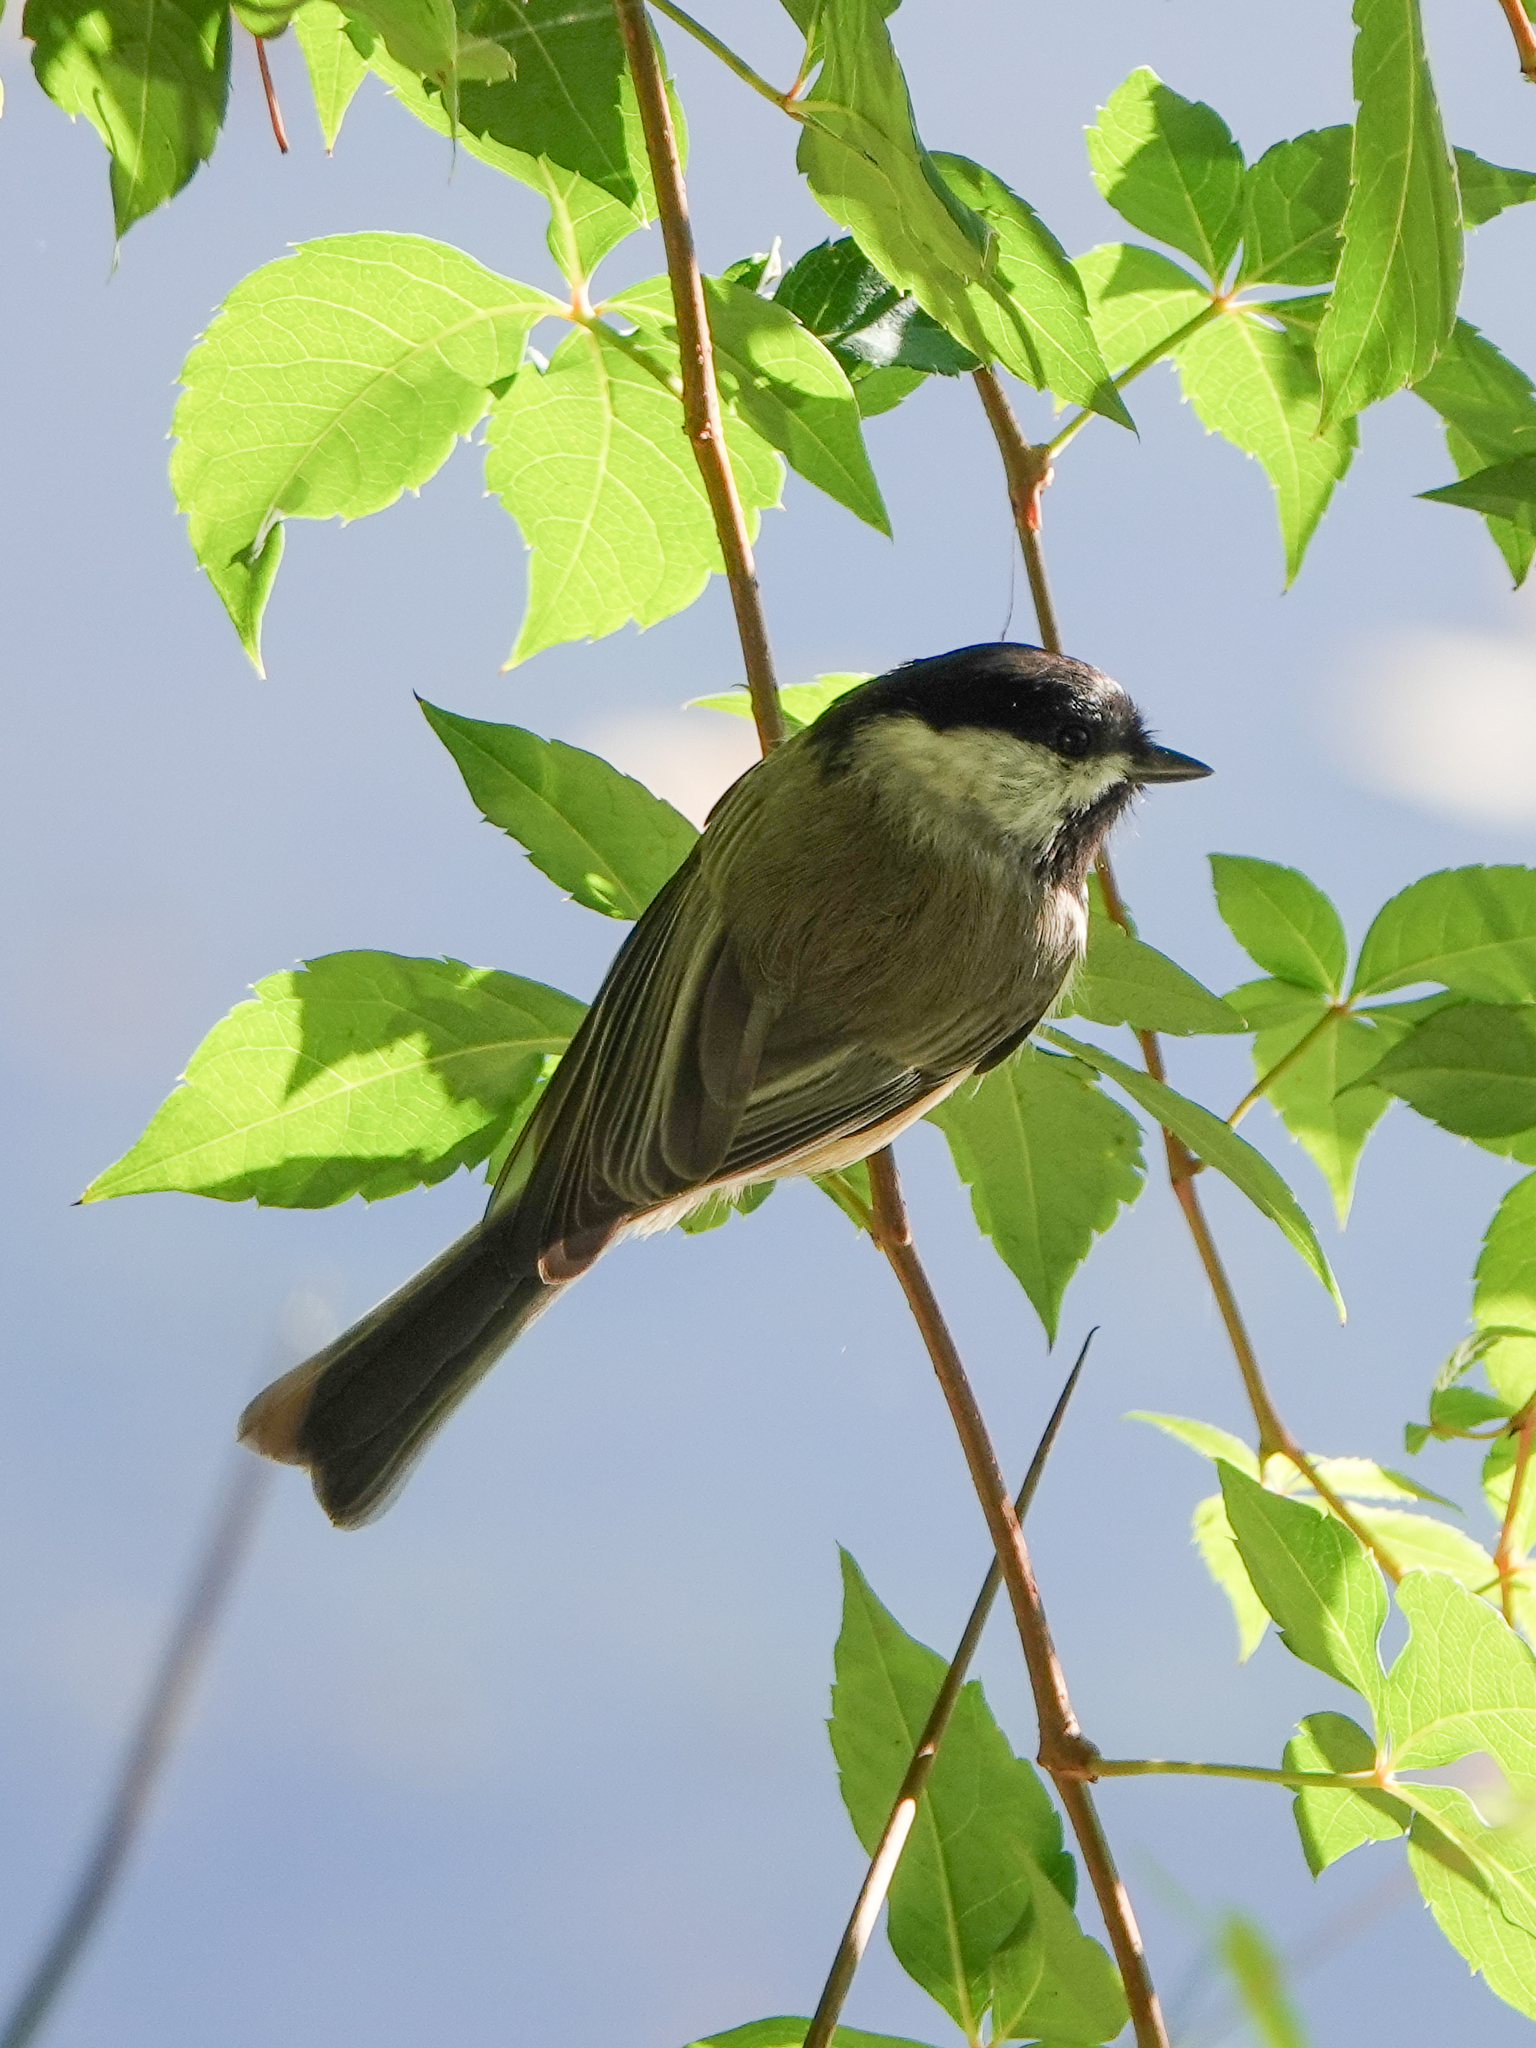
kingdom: Animalia
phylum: Chordata
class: Aves
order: Passeriformes
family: Paridae
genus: Poecile
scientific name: Poecile carolinensis
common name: Carolina chickadee
